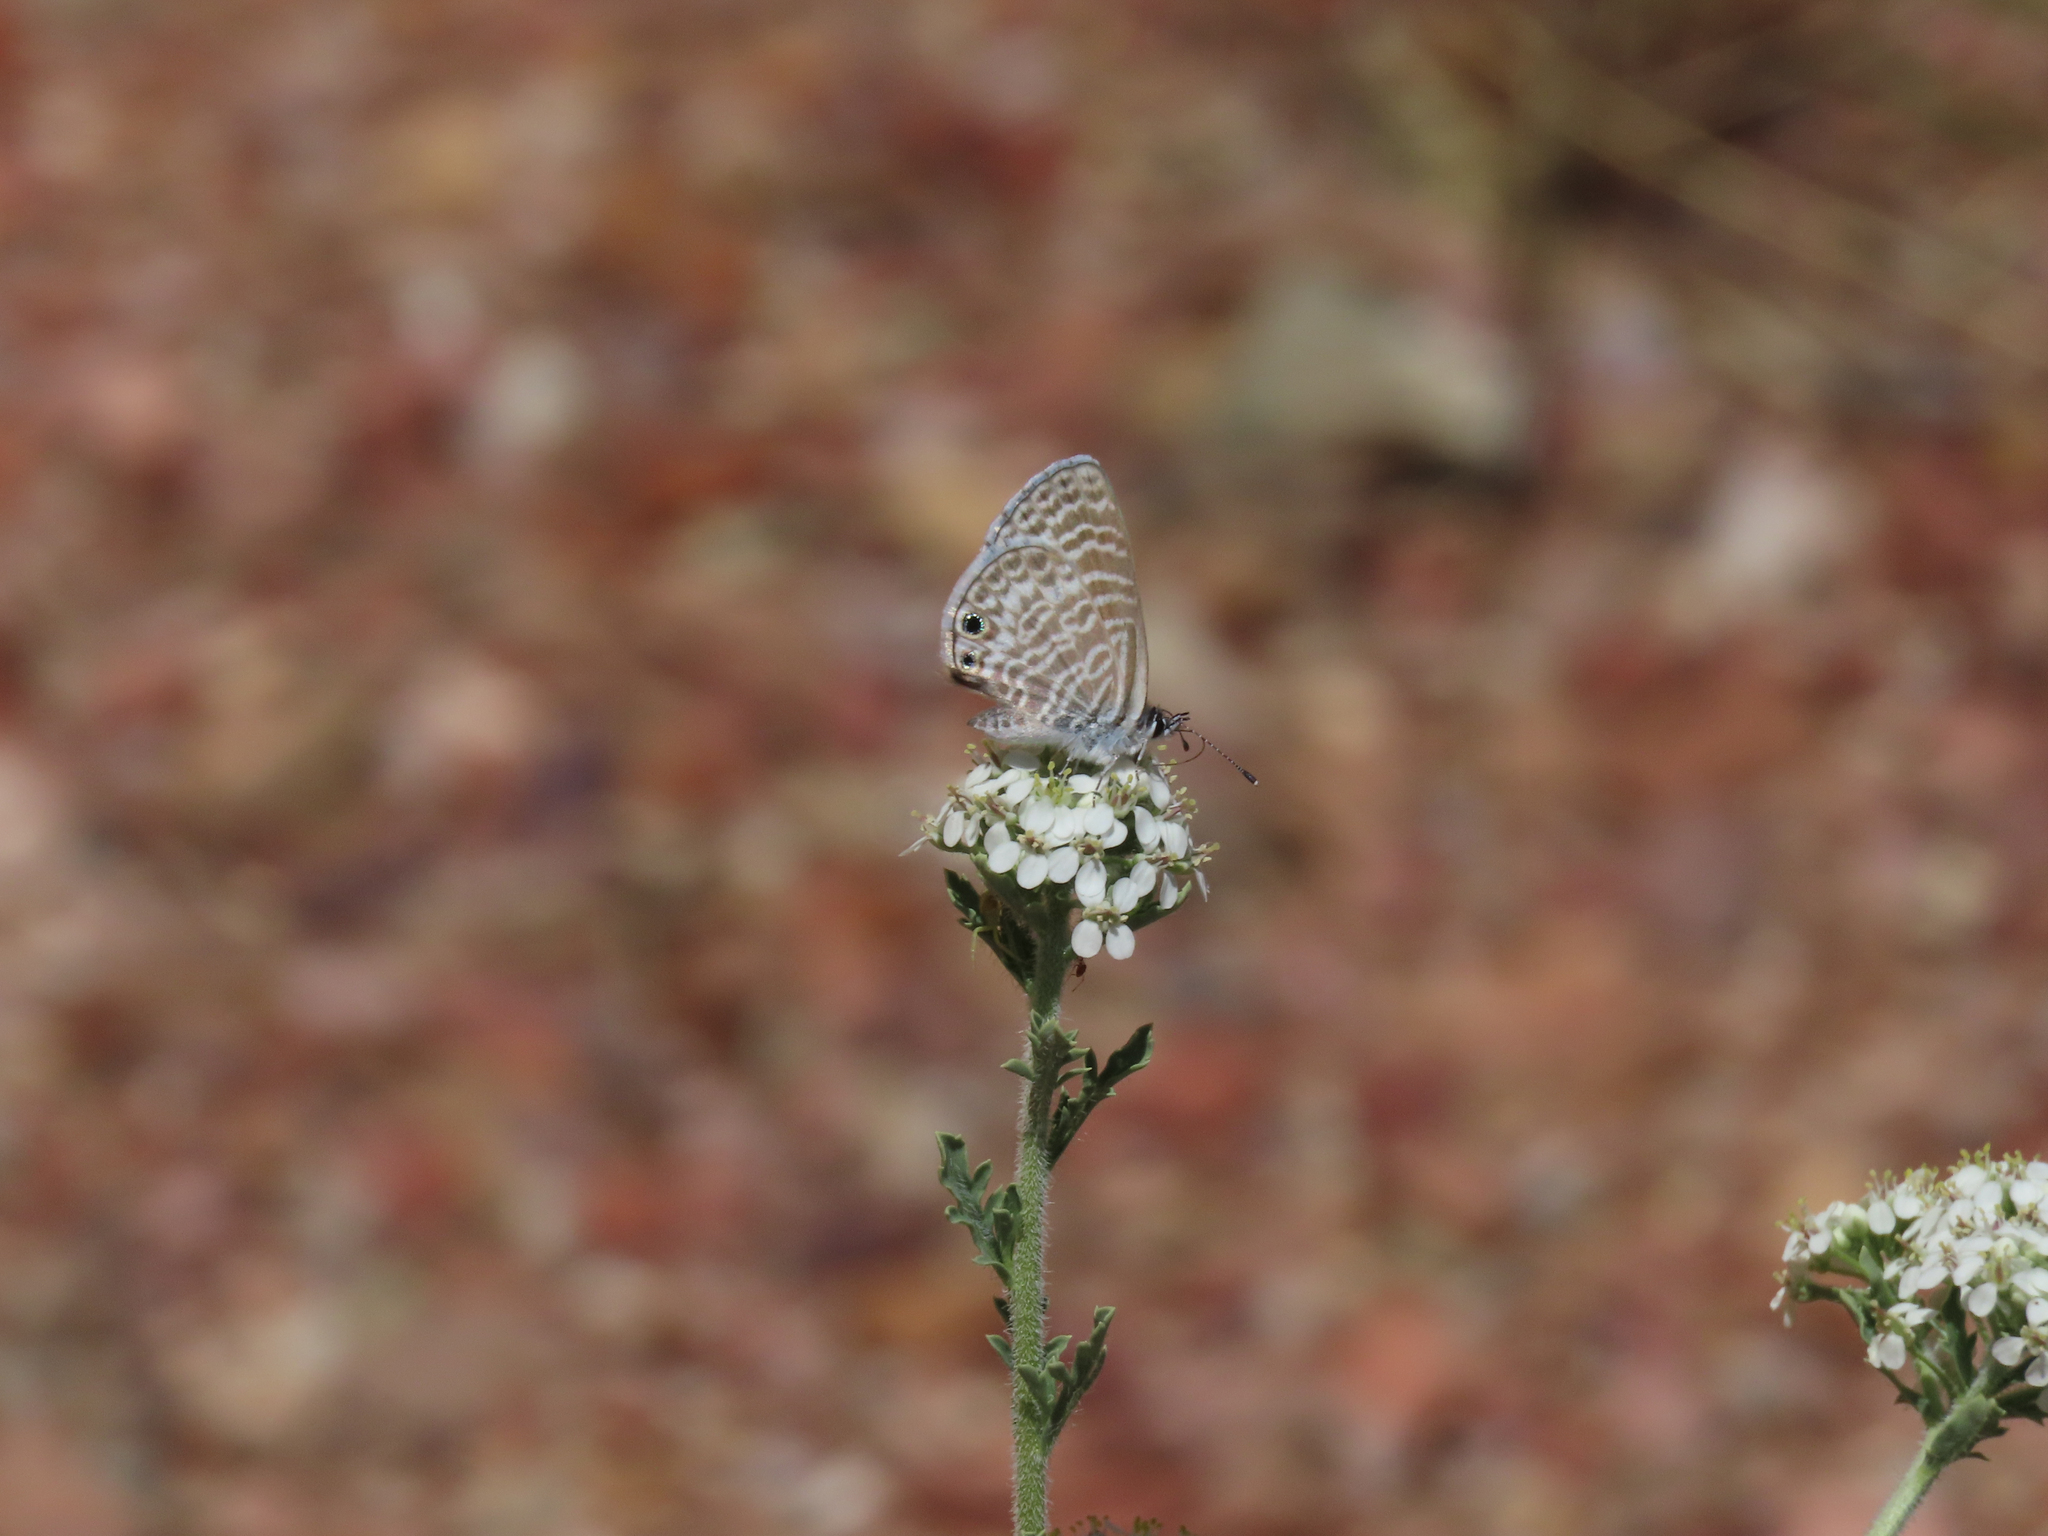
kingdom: Animalia
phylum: Arthropoda
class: Insecta
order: Lepidoptera
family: Lycaenidae
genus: Leptotes
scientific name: Leptotes marina
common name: Marine blue
